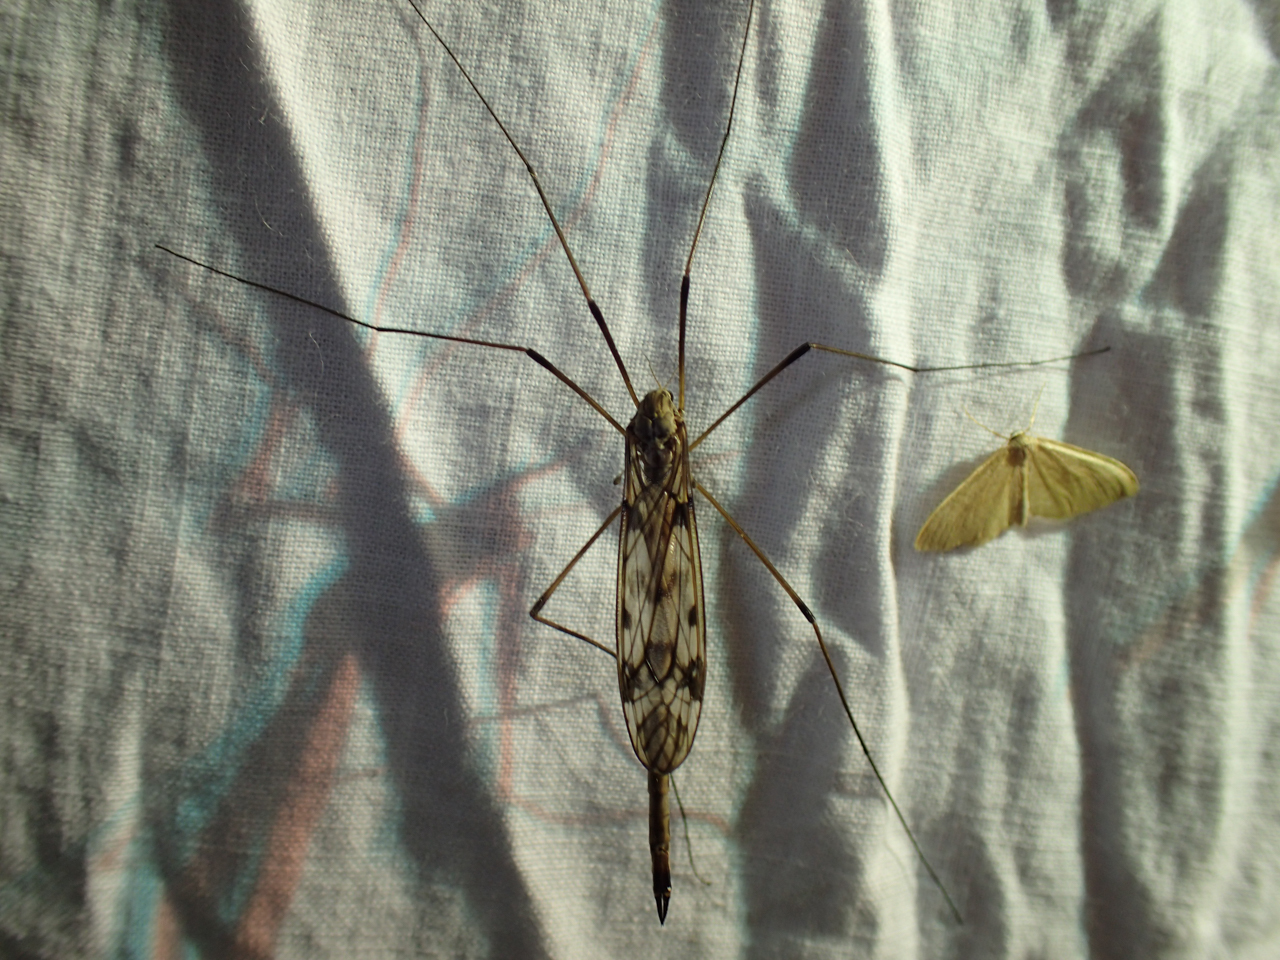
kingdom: Animalia
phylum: Arthropoda
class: Insecta
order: Diptera
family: Tipulidae
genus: Tipula
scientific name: Tipula longiventris
